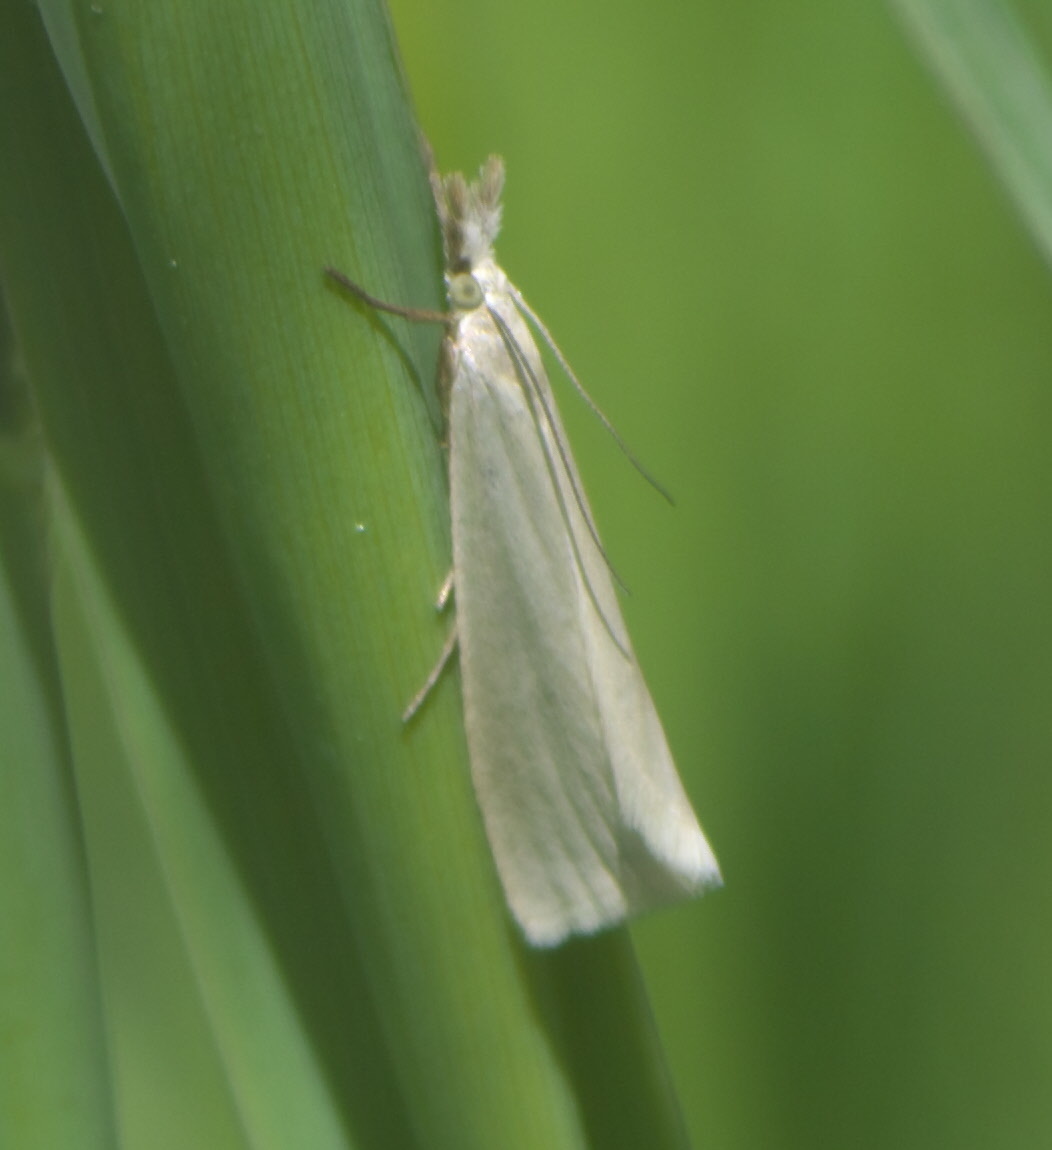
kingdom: Animalia
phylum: Arthropoda
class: Insecta
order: Lepidoptera
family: Crambidae
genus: Crambus
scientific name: Crambus perlellus
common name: Yellow satin veneer
